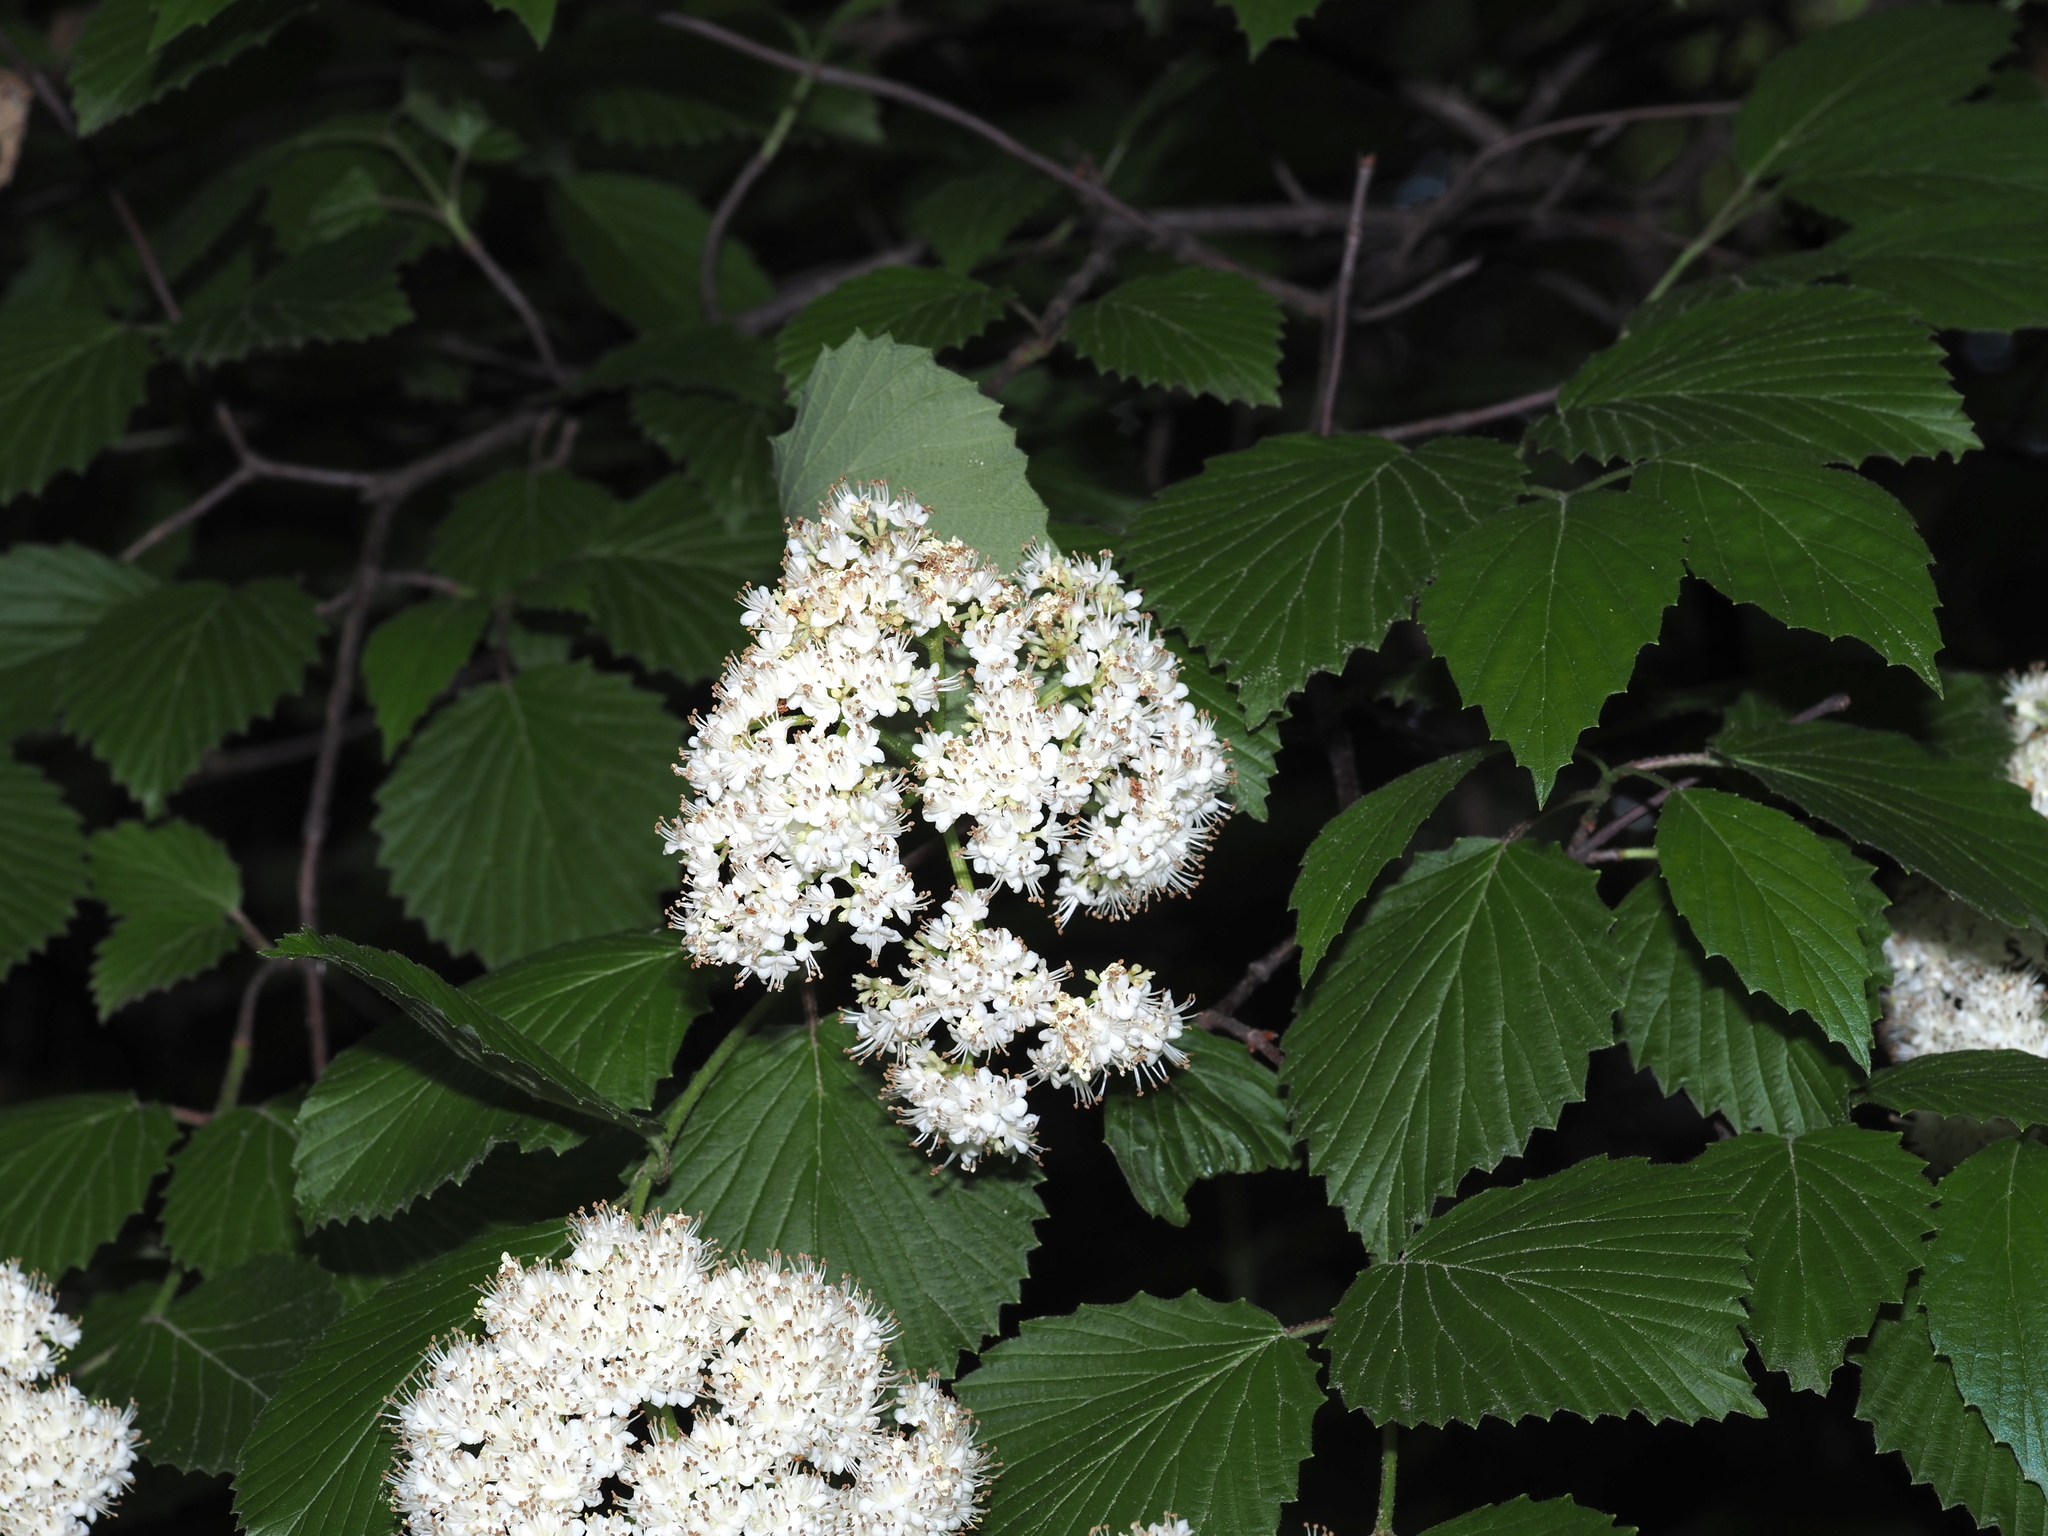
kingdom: Plantae
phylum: Tracheophyta
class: Magnoliopsida
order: Dipsacales
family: Viburnaceae
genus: Viburnum
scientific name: Viburnum dentatum
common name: Arrow-wood
